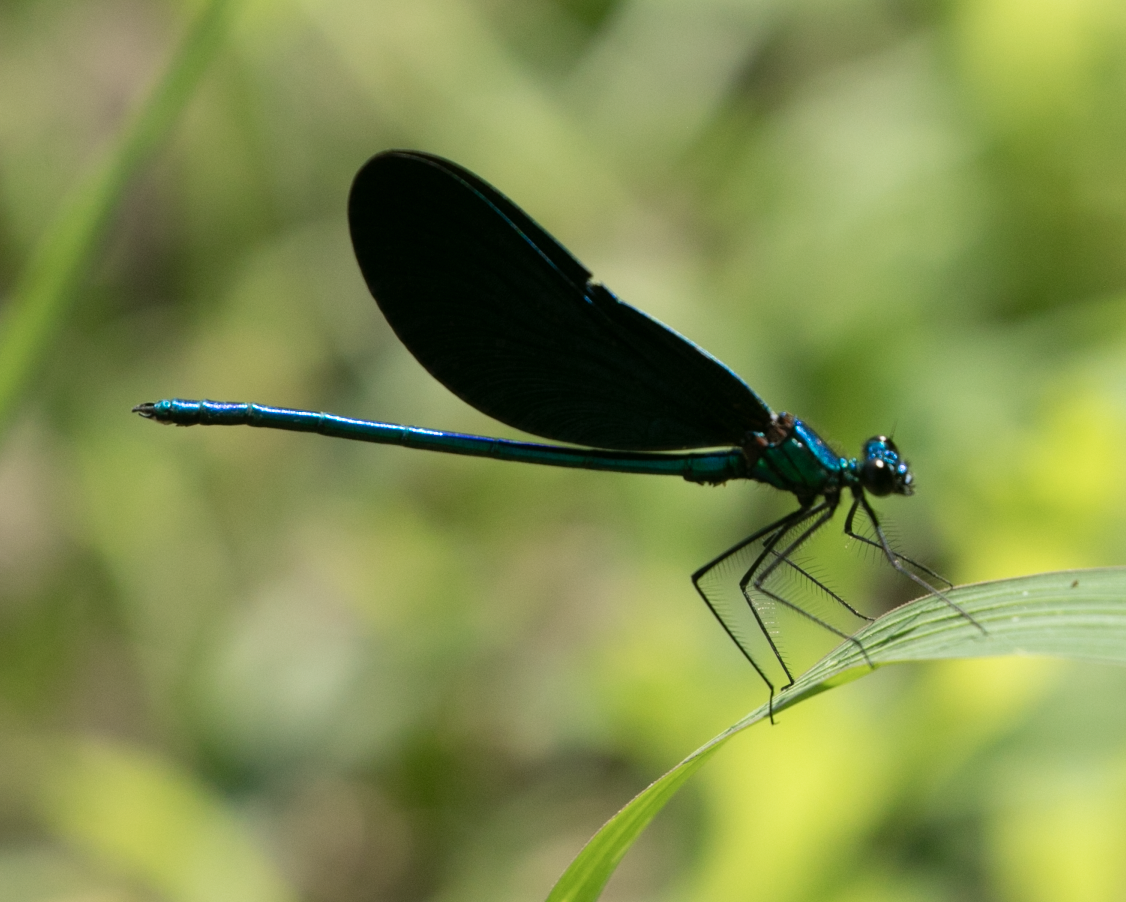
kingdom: Animalia
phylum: Arthropoda
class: Insecta
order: Odonata
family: Calopterygidae
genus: Calopteryx
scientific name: Calopteryx virgo
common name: Beautiful demoiselle
